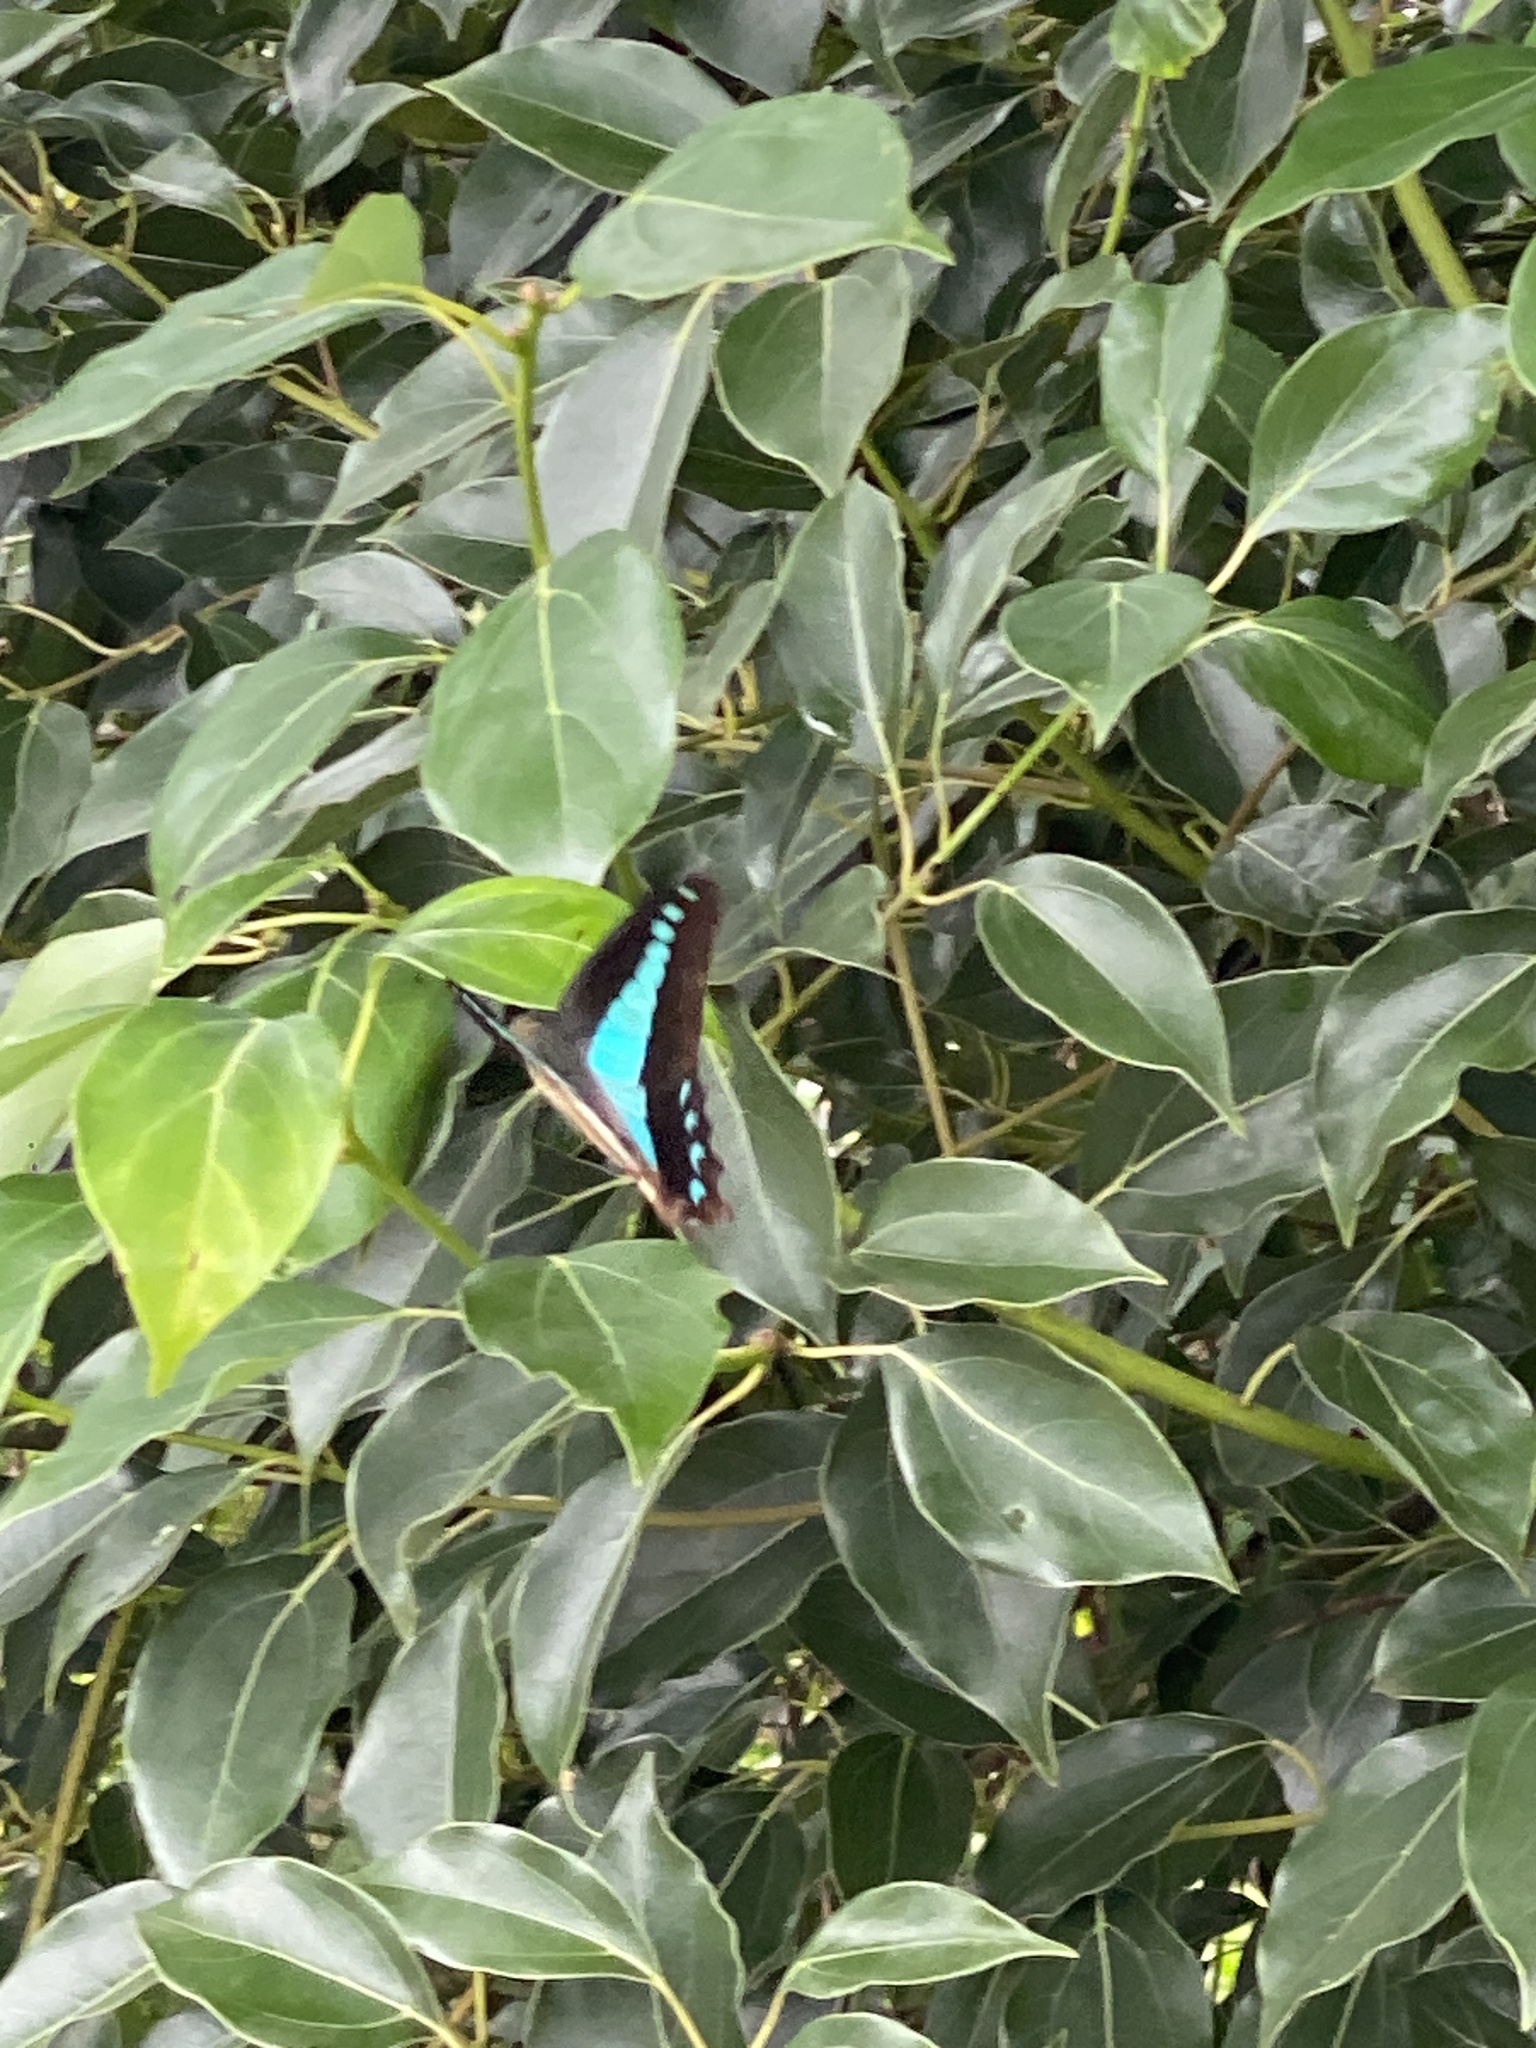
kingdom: Animalia
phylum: Arthropoda
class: Insecta
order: Lepidoptera
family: Papilionidae
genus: Graphium
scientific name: Graphium
